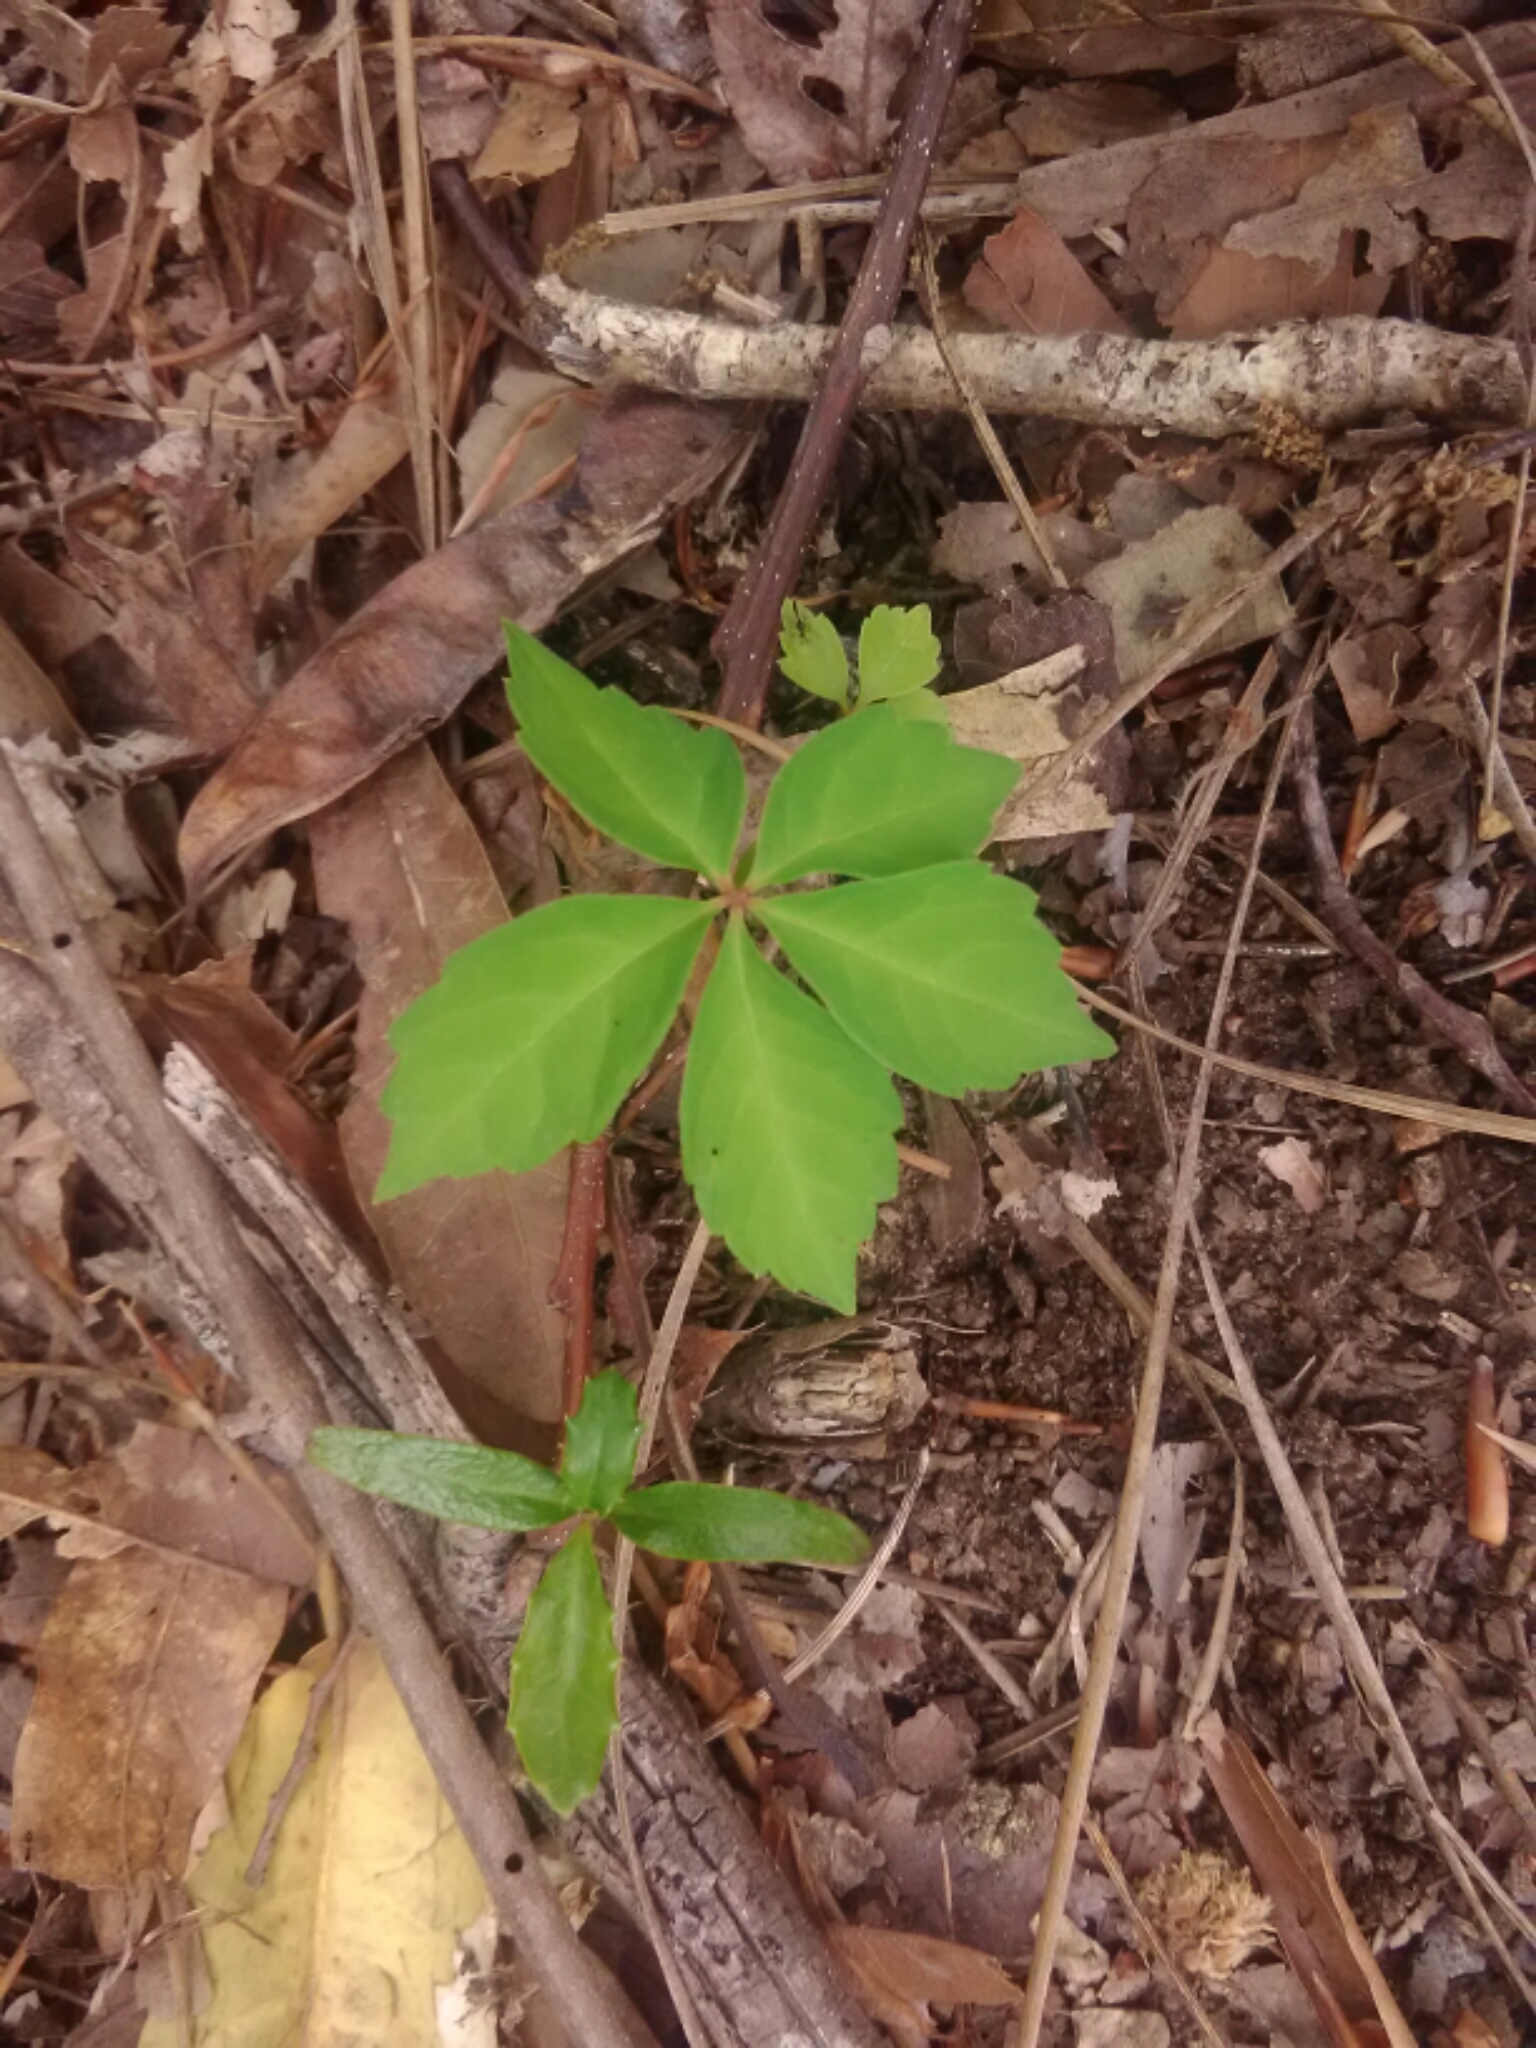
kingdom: Plantae
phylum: Tracheophyta
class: Magnoliopsida
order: Vitales
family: Vitaceae
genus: Parthenocissus
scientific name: Parthenocissus quinquefolia
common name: Virginia-creeper
